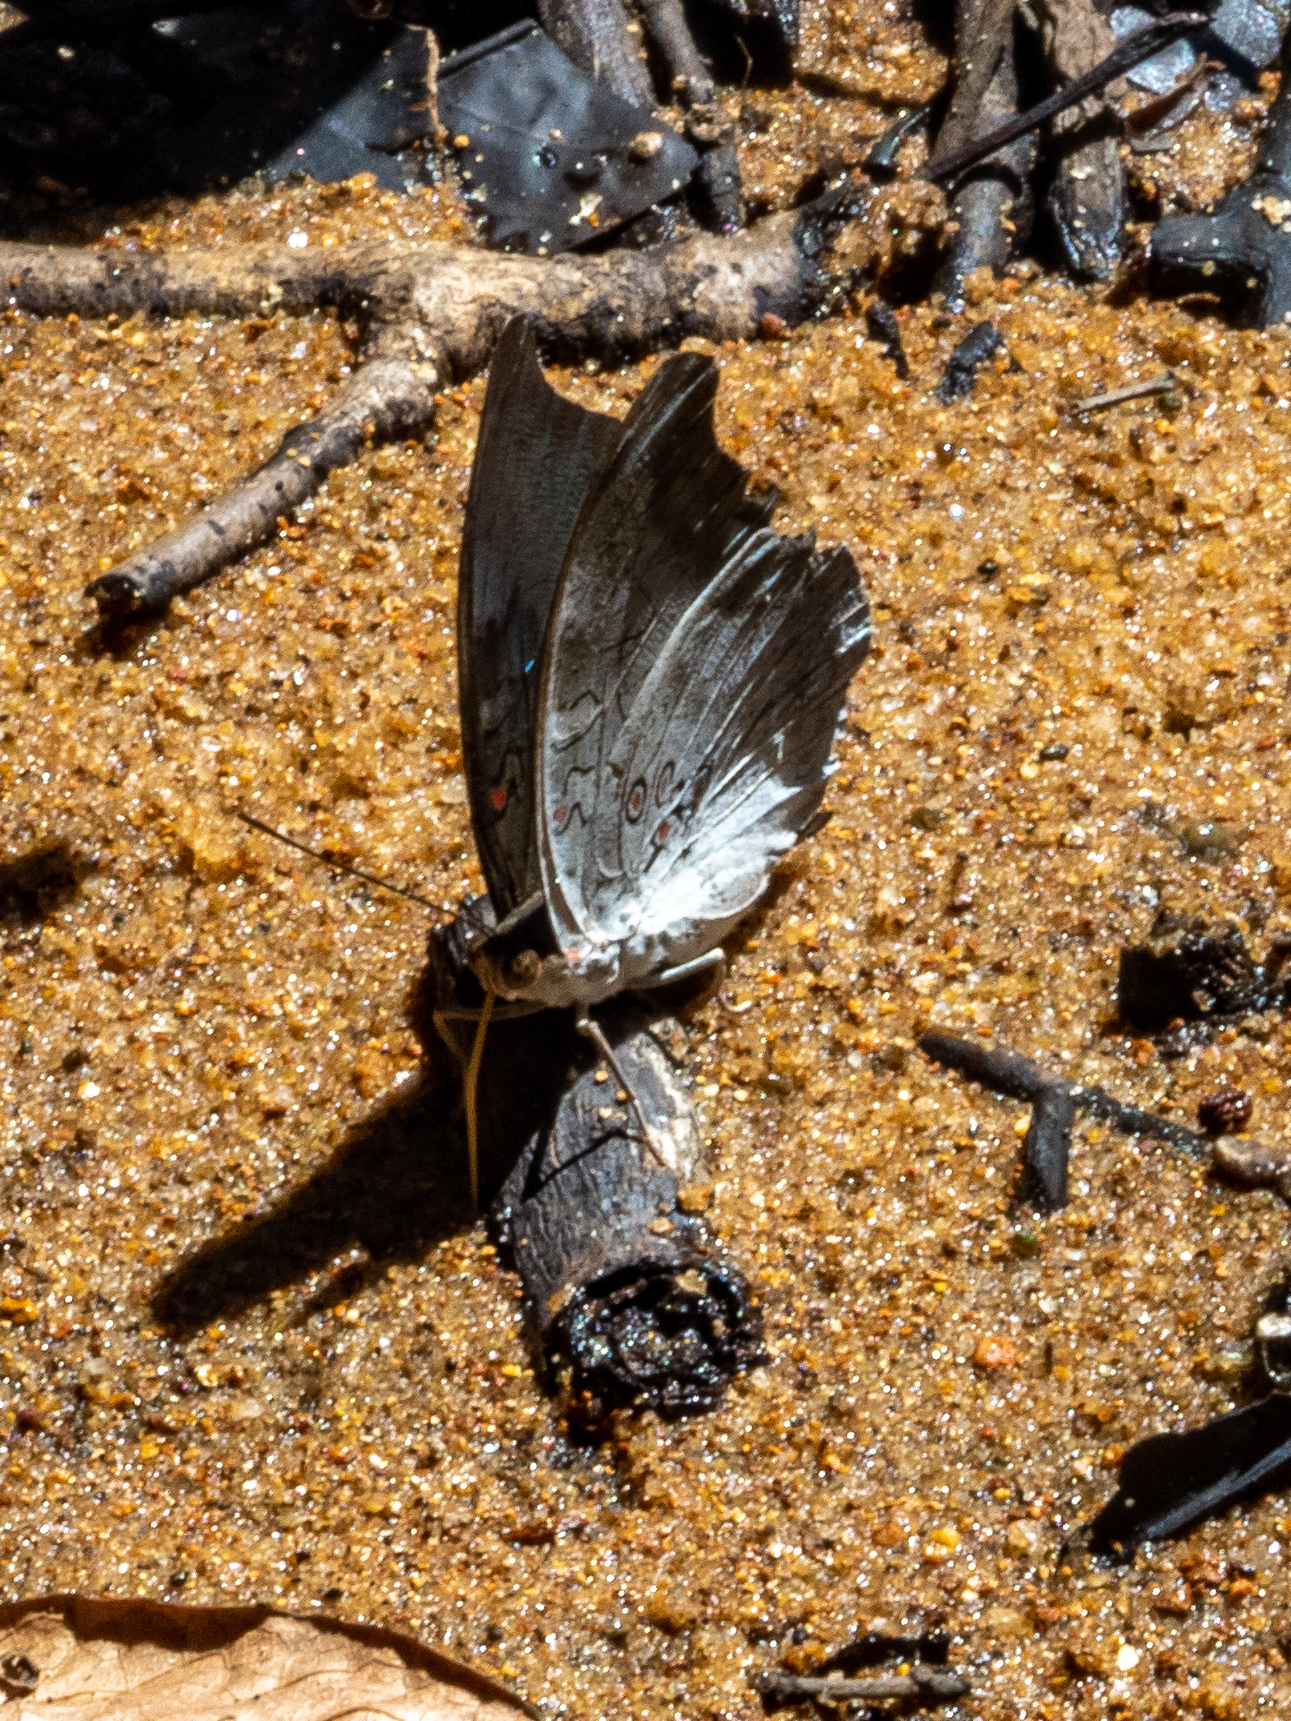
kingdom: Animalia
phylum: Arthropoda
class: Insecta
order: Lepidoptera
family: Nymphalidae
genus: Euthalia
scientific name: Euthalia Dophla evelina
